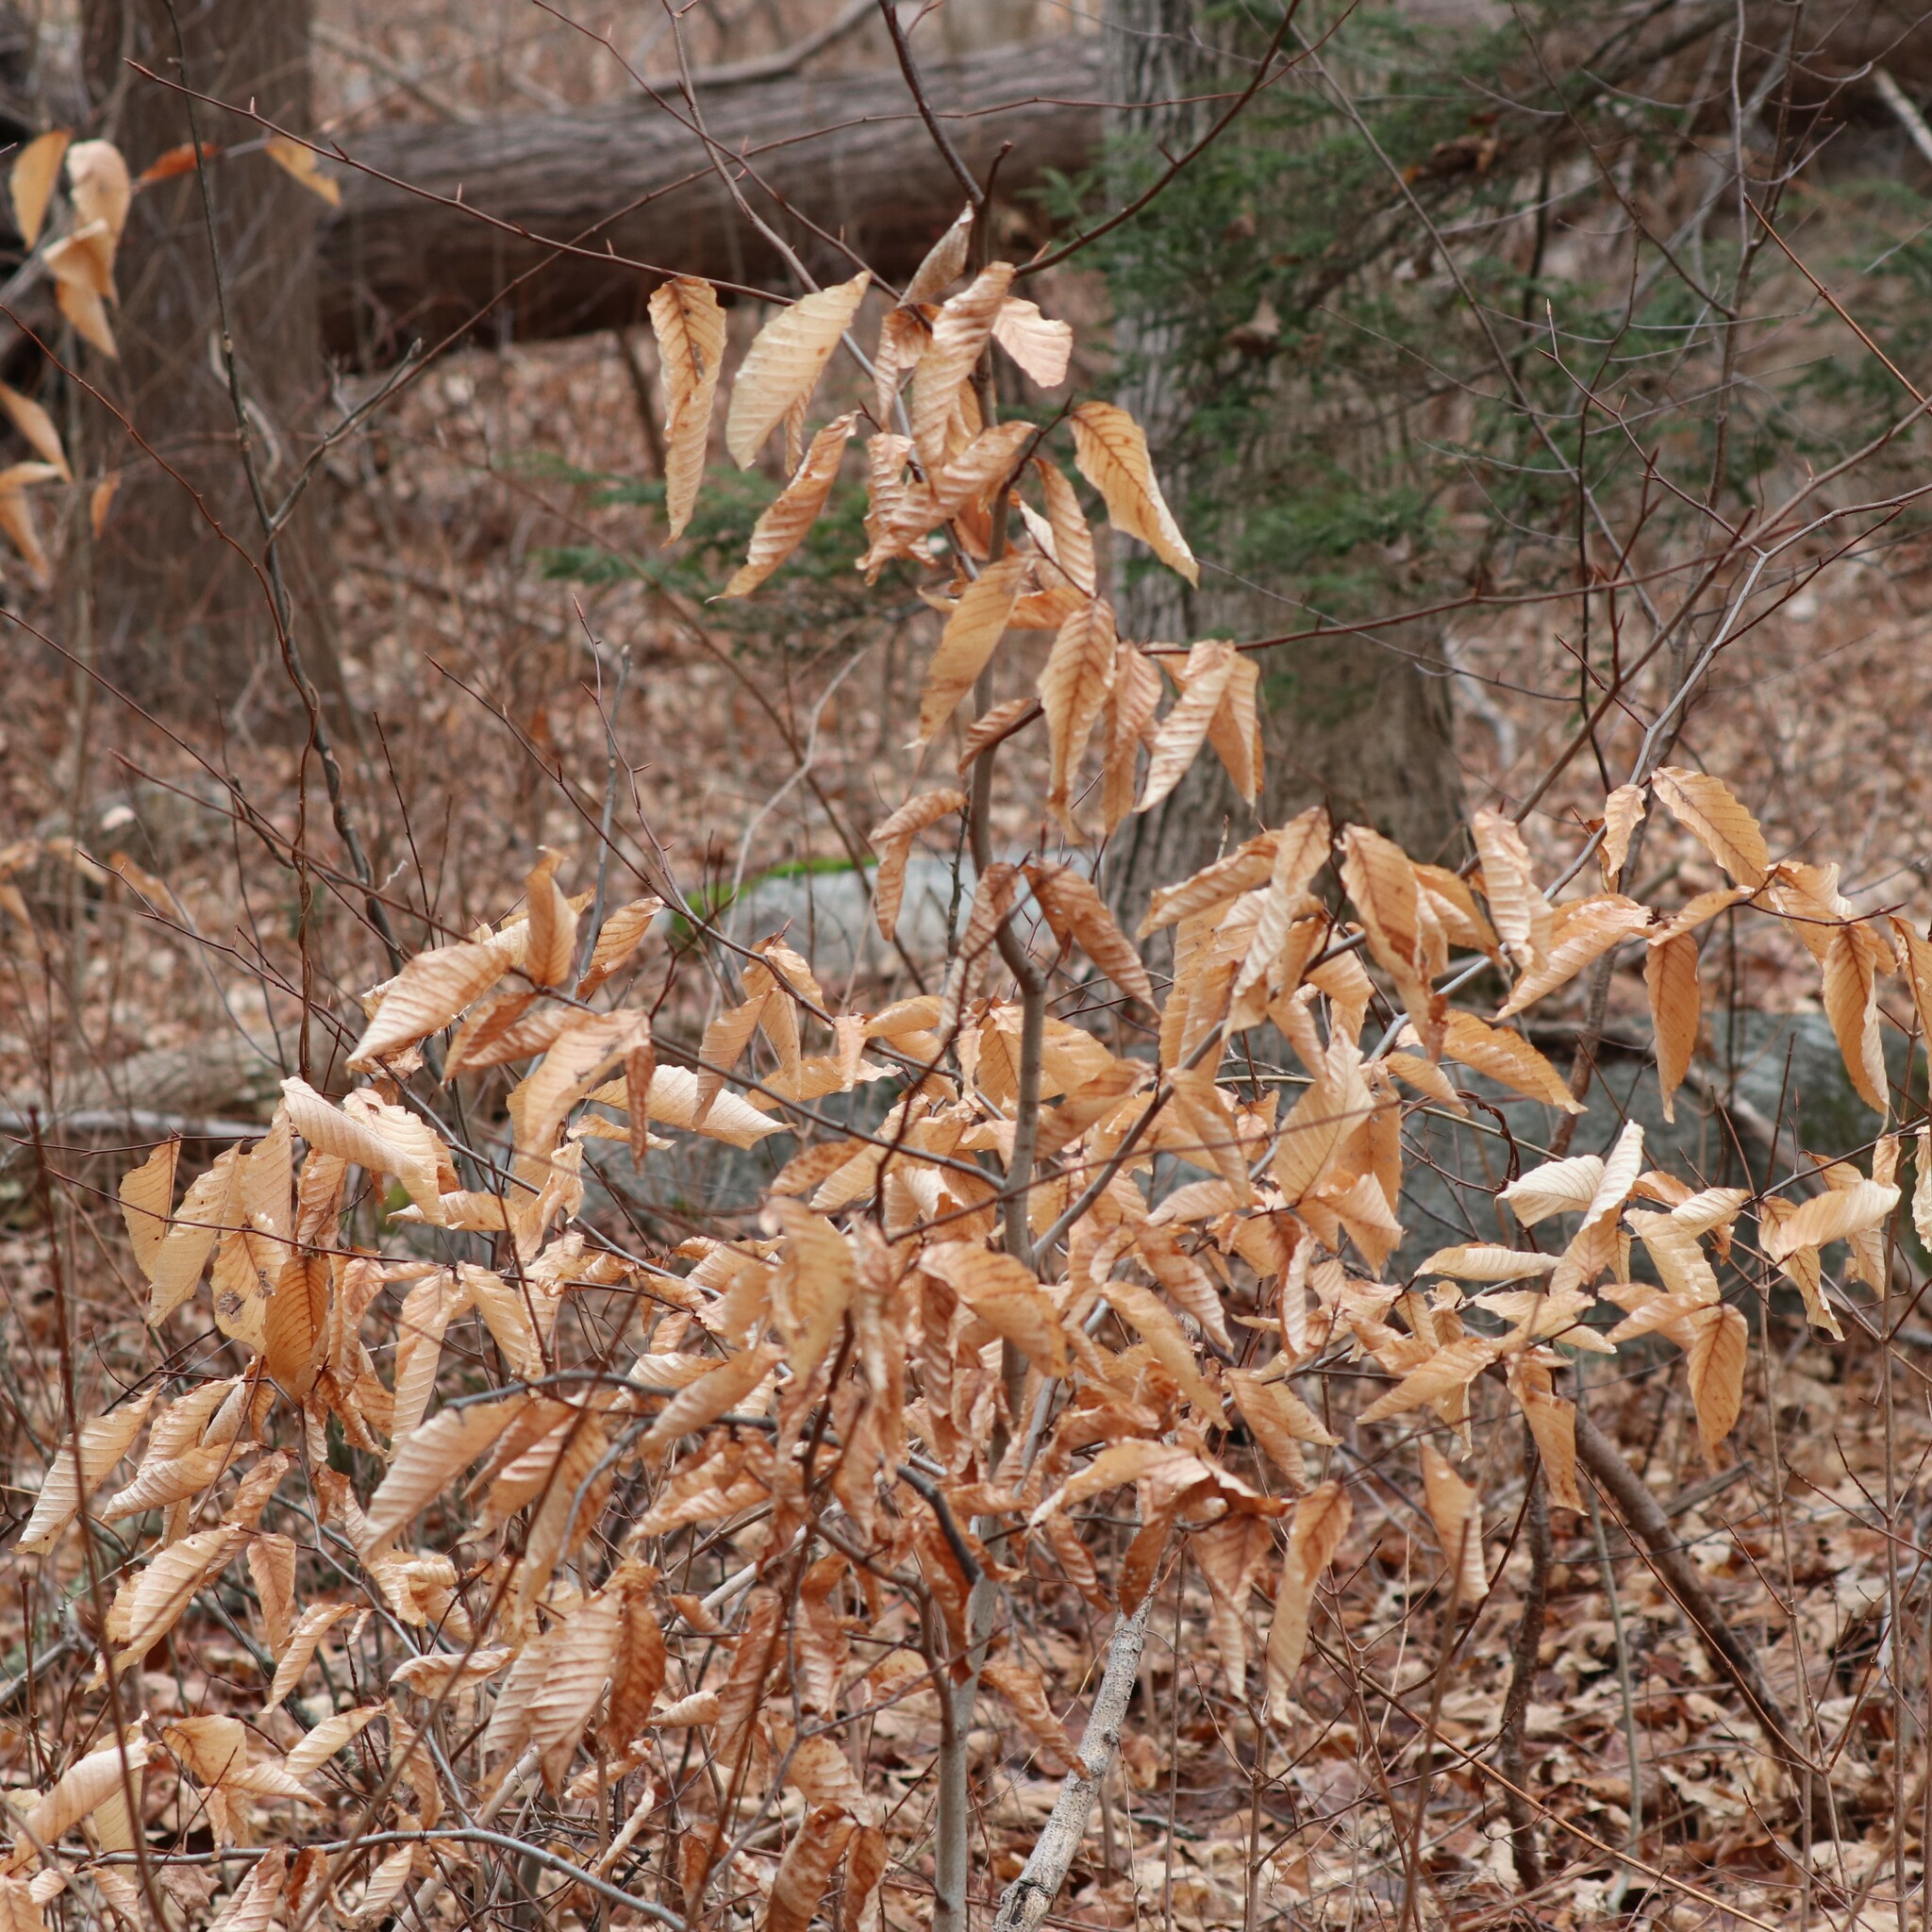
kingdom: Plantae
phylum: Tracheophyta
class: Magnoliopsida
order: Fagales
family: Fagaceae
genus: Fagus
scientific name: Fagus grandifolia
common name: American beech
